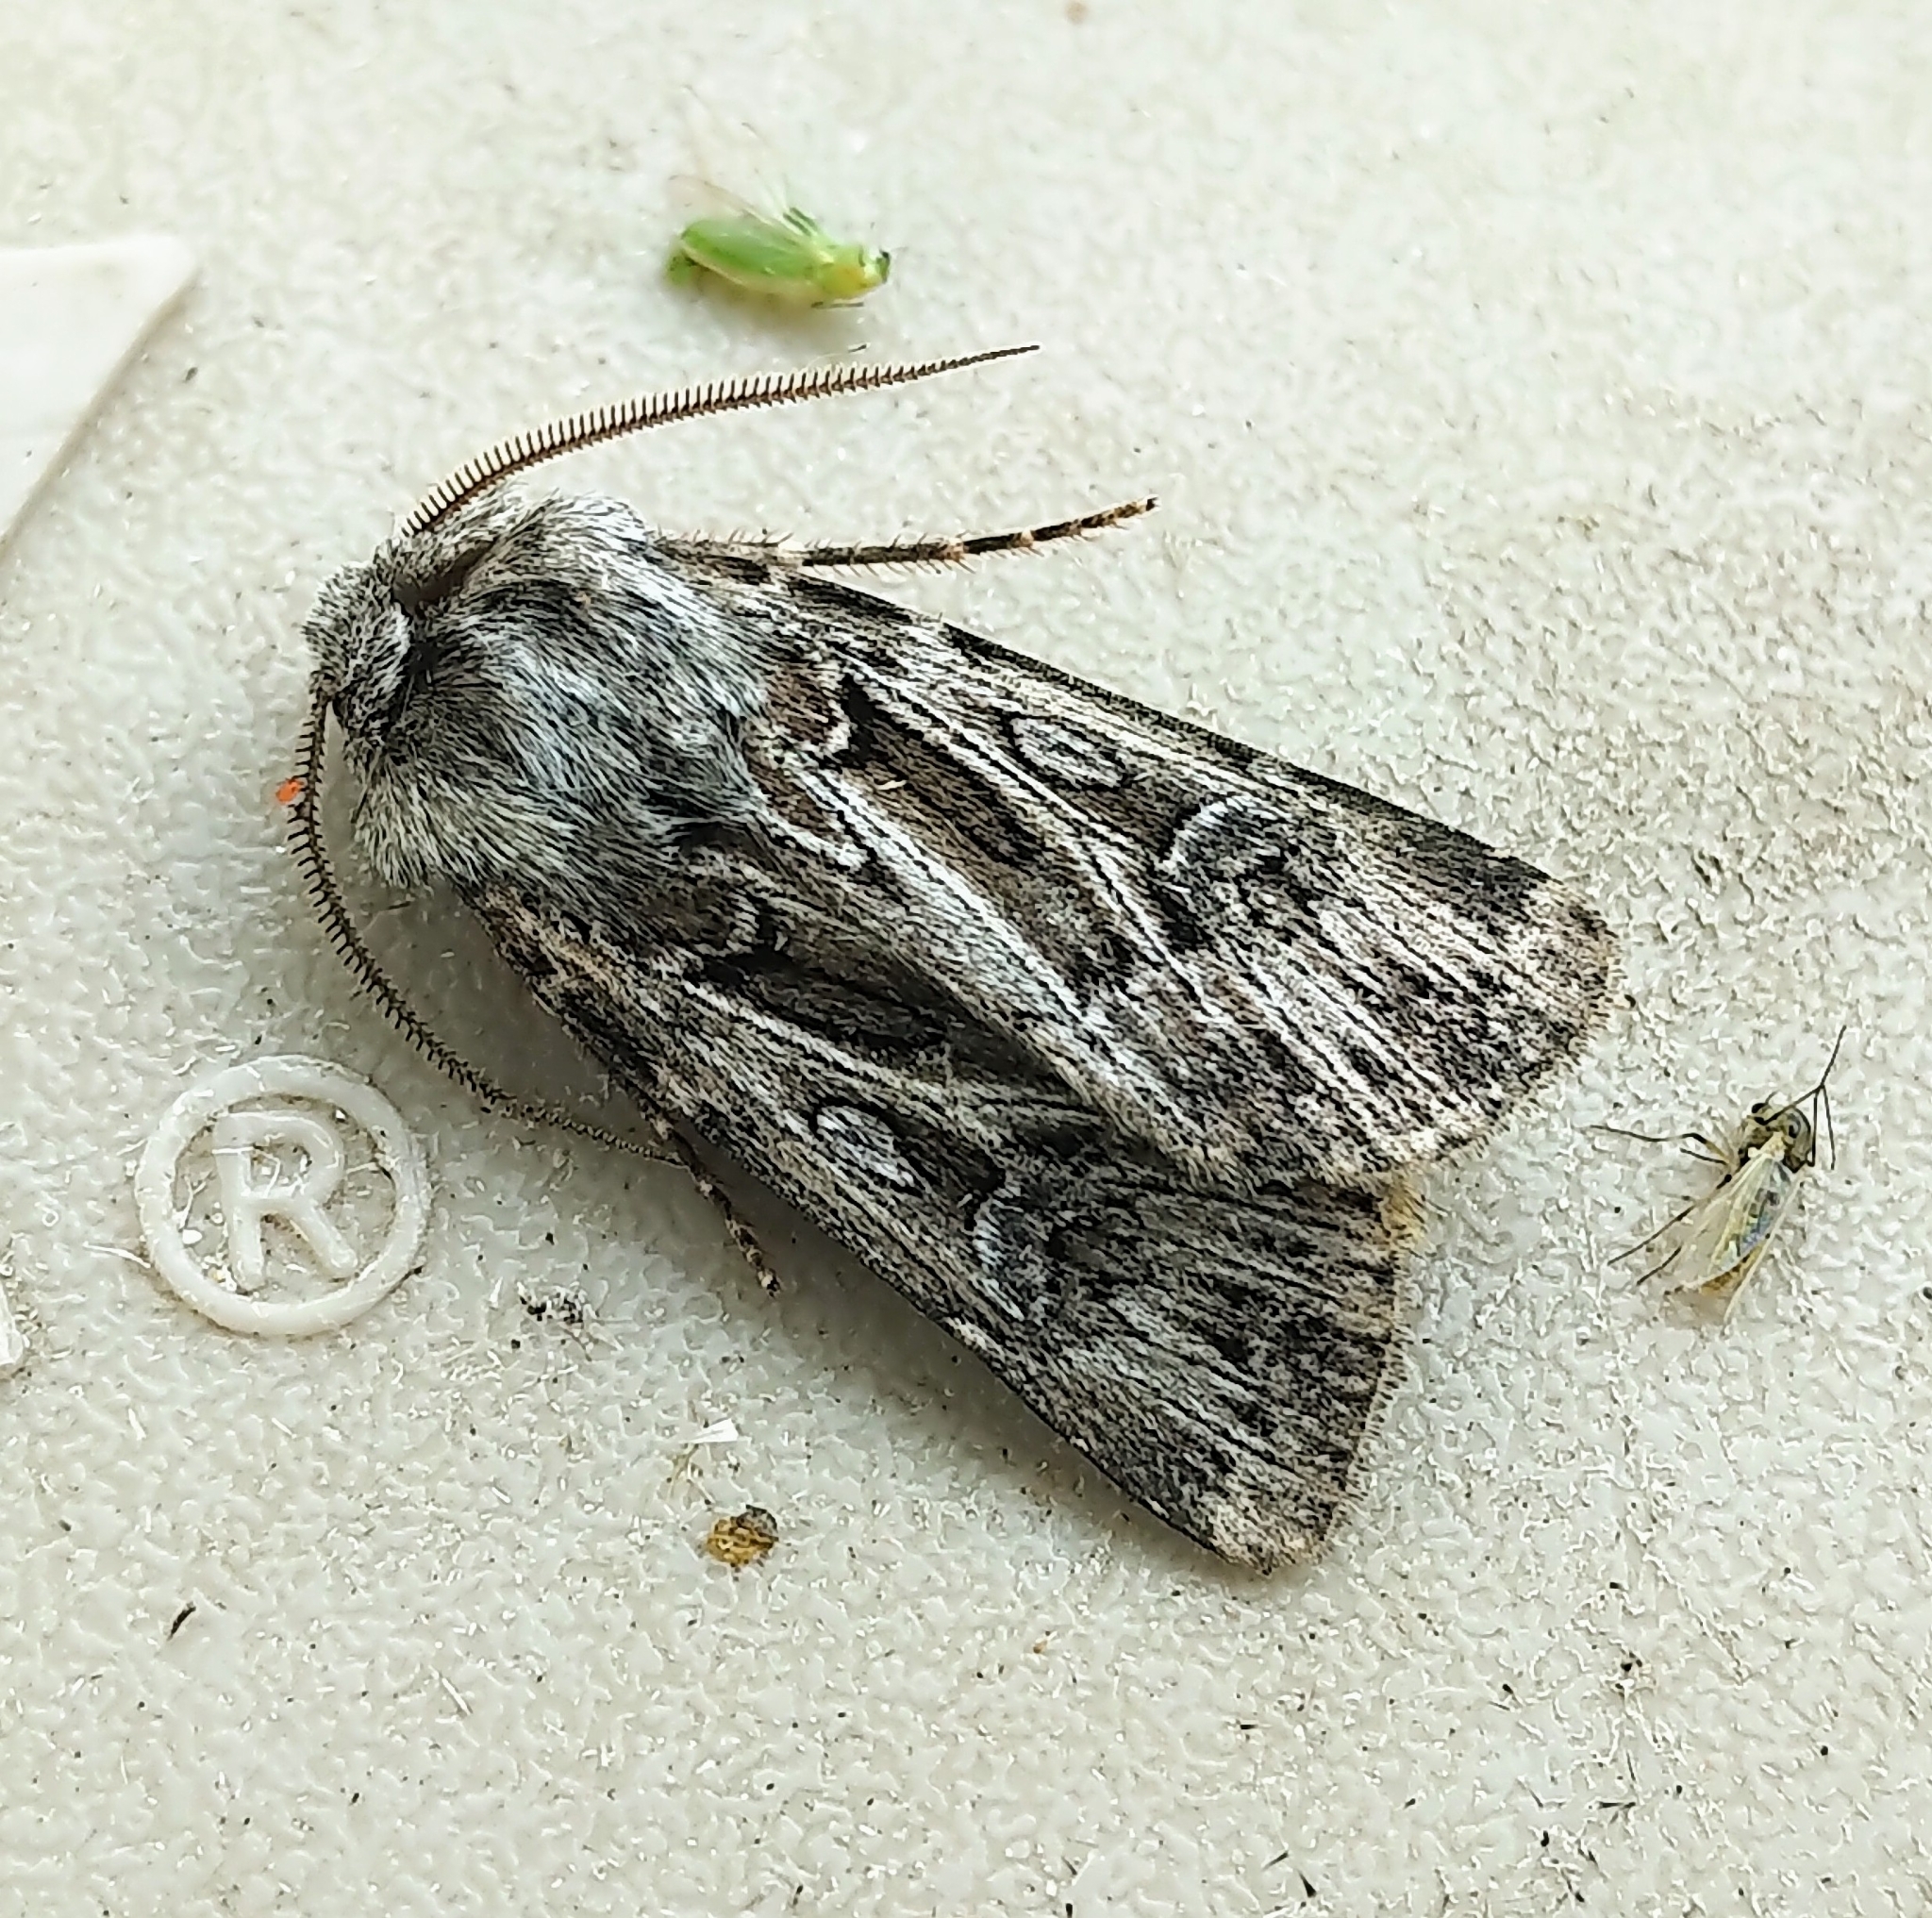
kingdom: Animalia
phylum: Arthropoda
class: Insecta
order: Lepidoptera
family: Noctuidae
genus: Agrotis
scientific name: Agrotis robustior
